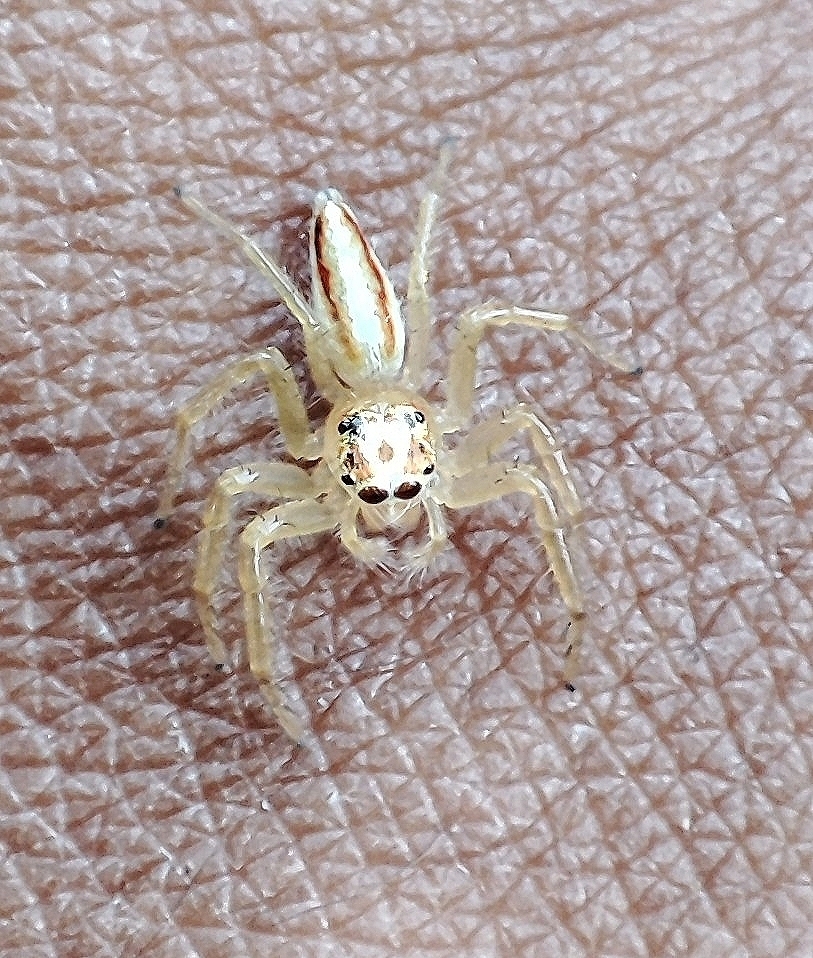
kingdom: Animalia
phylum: Arthropoda
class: Arachnida
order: Araneae
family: Salticidae
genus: Telamonia
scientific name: Telamonia dimidiata
